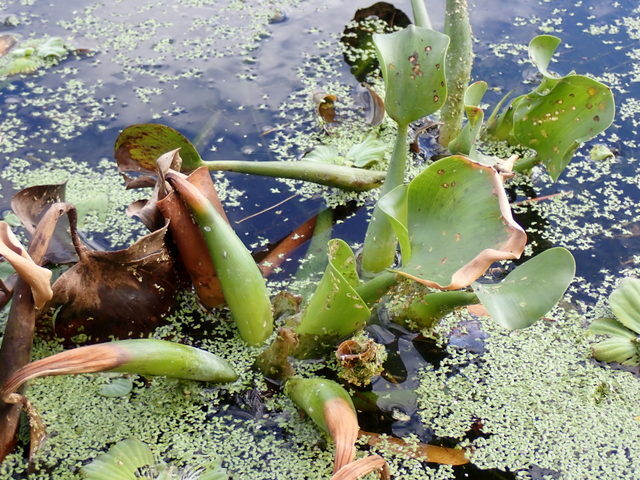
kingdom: Plantae
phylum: Tracheophyta
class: Liliopsida
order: Commelinales
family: Pontederiaceae
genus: Pontederia
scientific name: Pontederia crassipes
